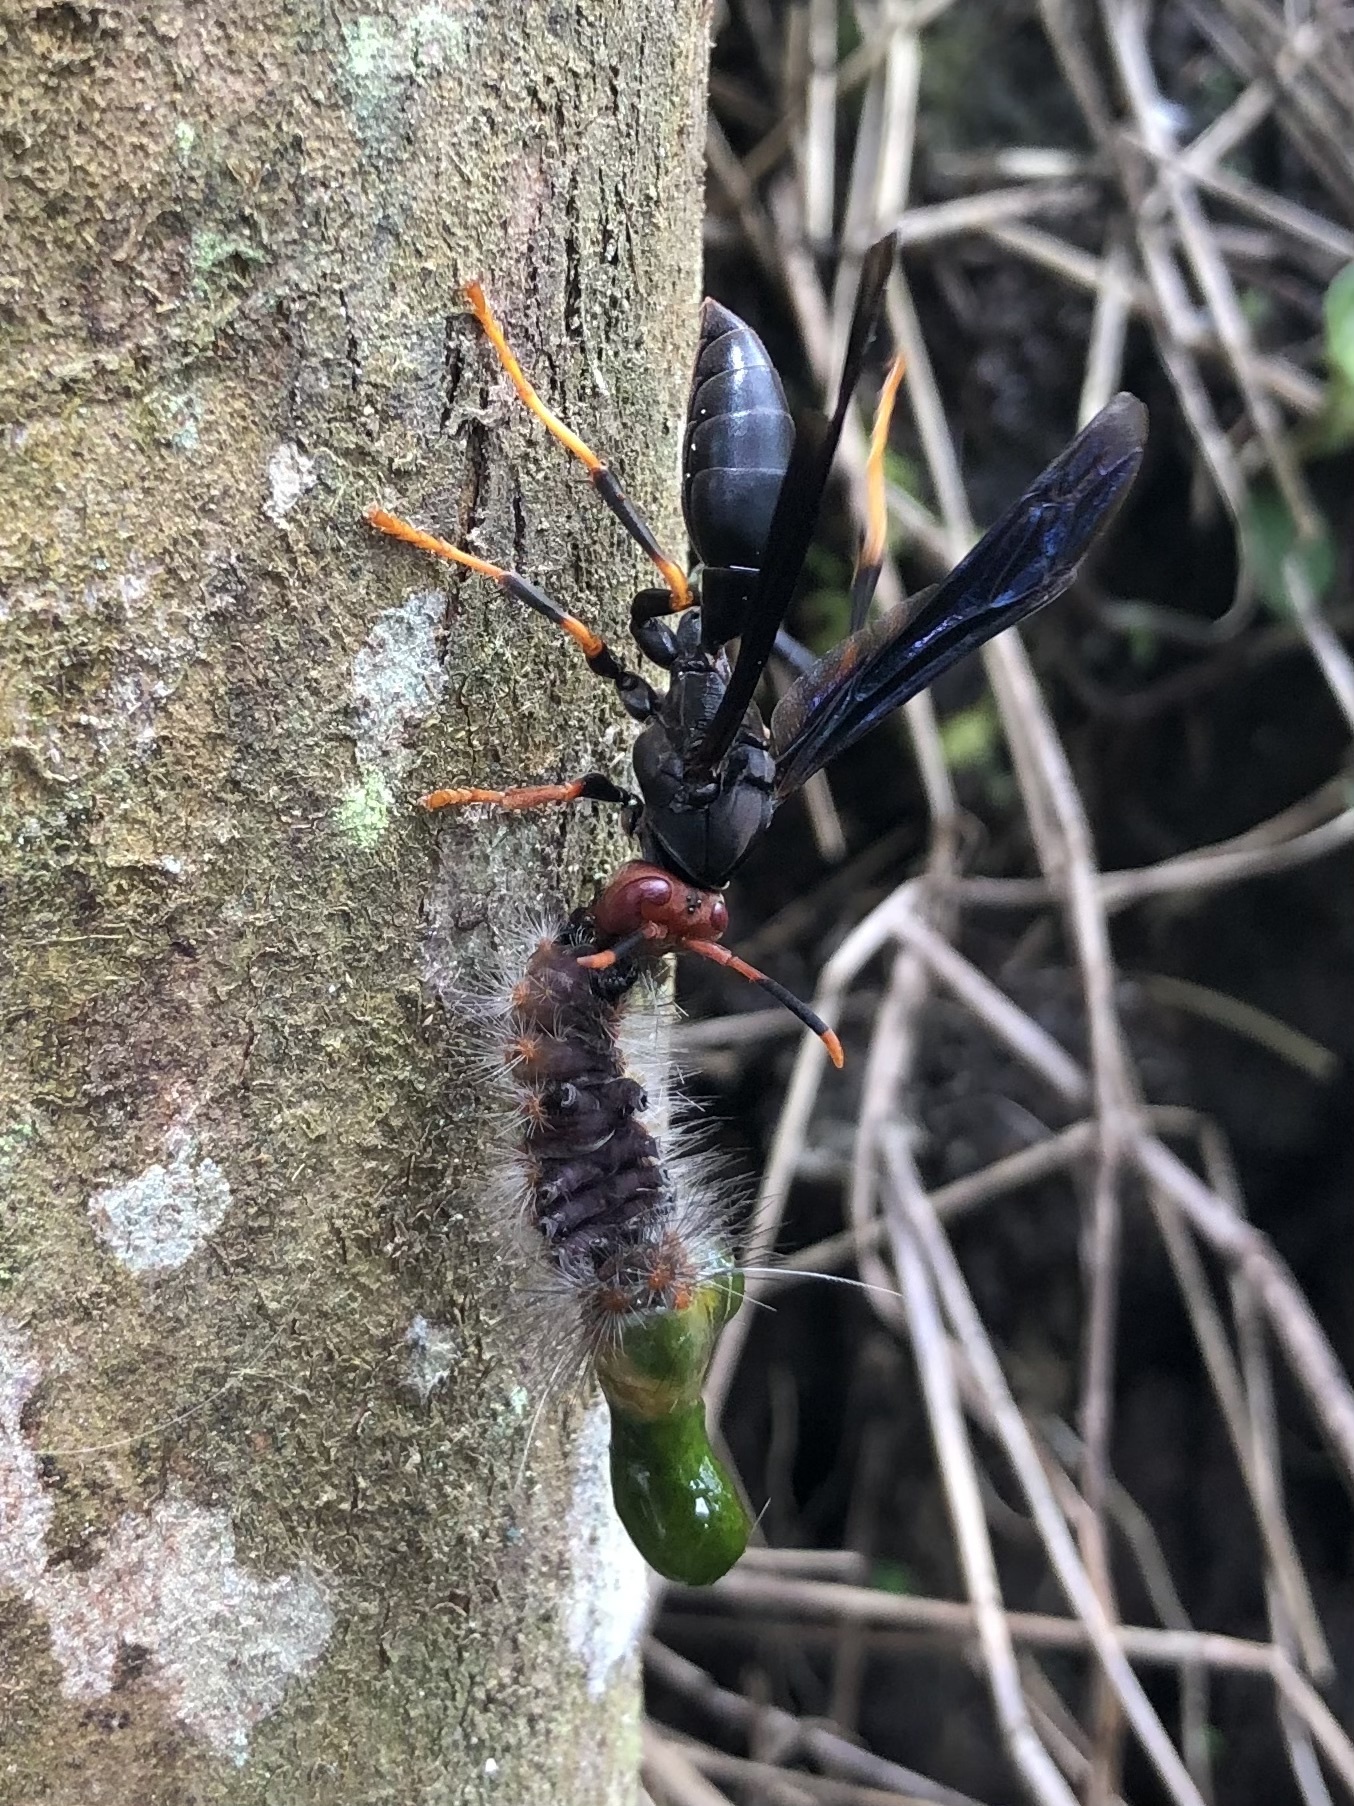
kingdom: Animalia
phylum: Arthropoda
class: Insecta
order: Hymenoptera
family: Eumenidae
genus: Polistes
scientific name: Polistes erythrocephalus
